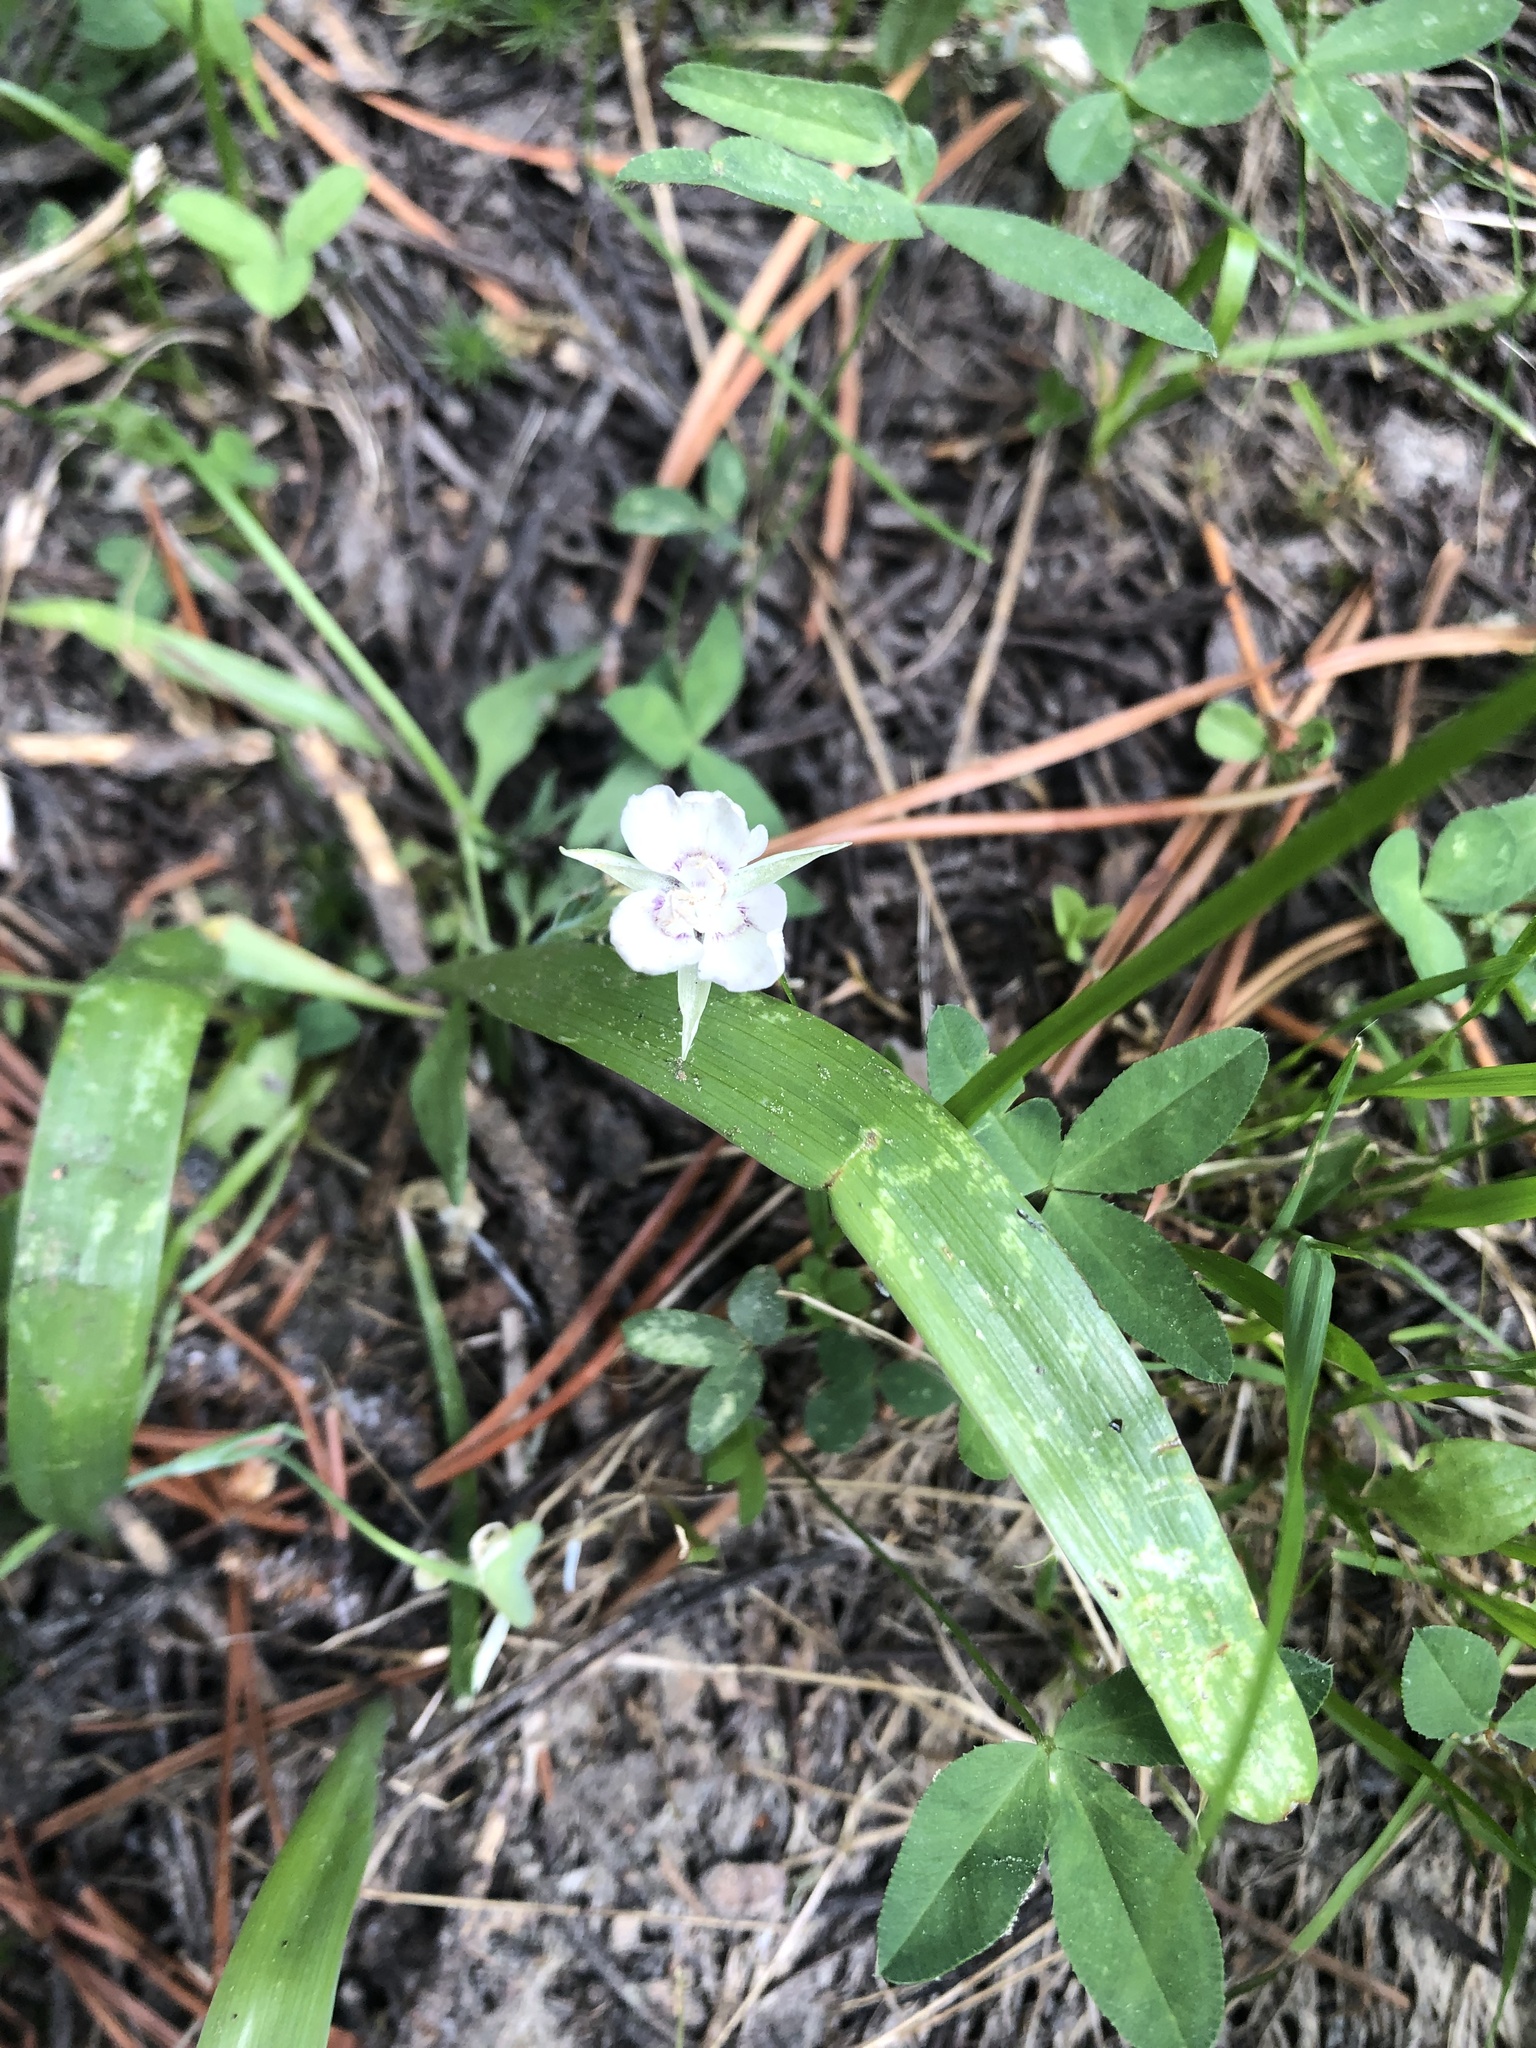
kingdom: Plantae
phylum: Tracheophyta
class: Liliopsida
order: Liliales
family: Liliaceae
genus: Calochortus
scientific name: Calochortus minimus
